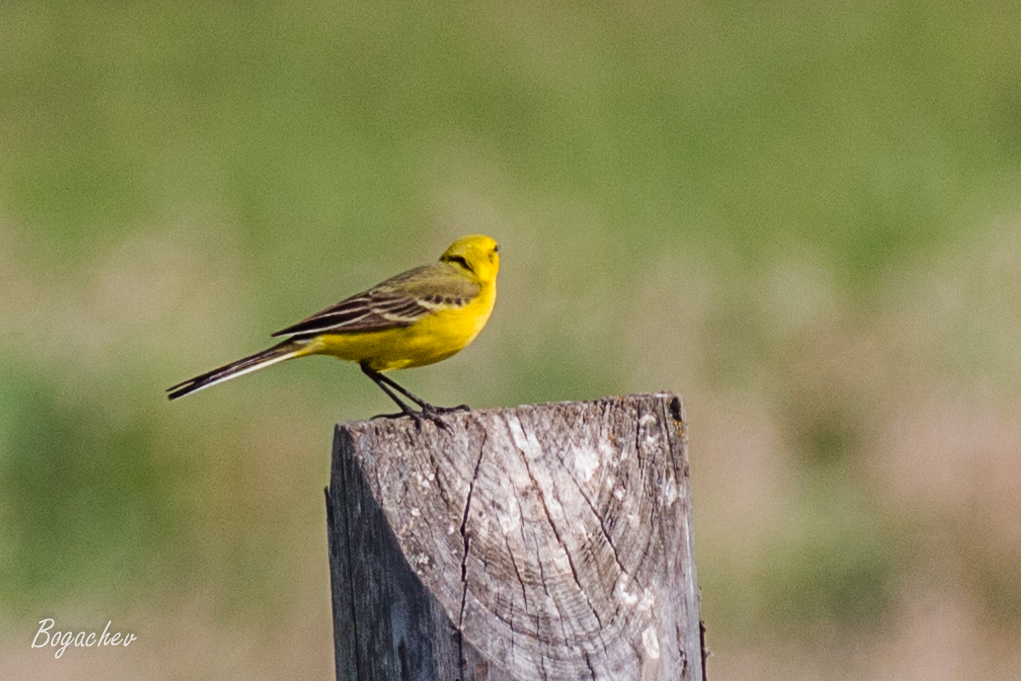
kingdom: Animalia
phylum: Chordata
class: Aves
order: Passeriformes
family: Motacillidae
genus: Motacilla
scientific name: Motacilla flava
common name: Western yellow wagtail
